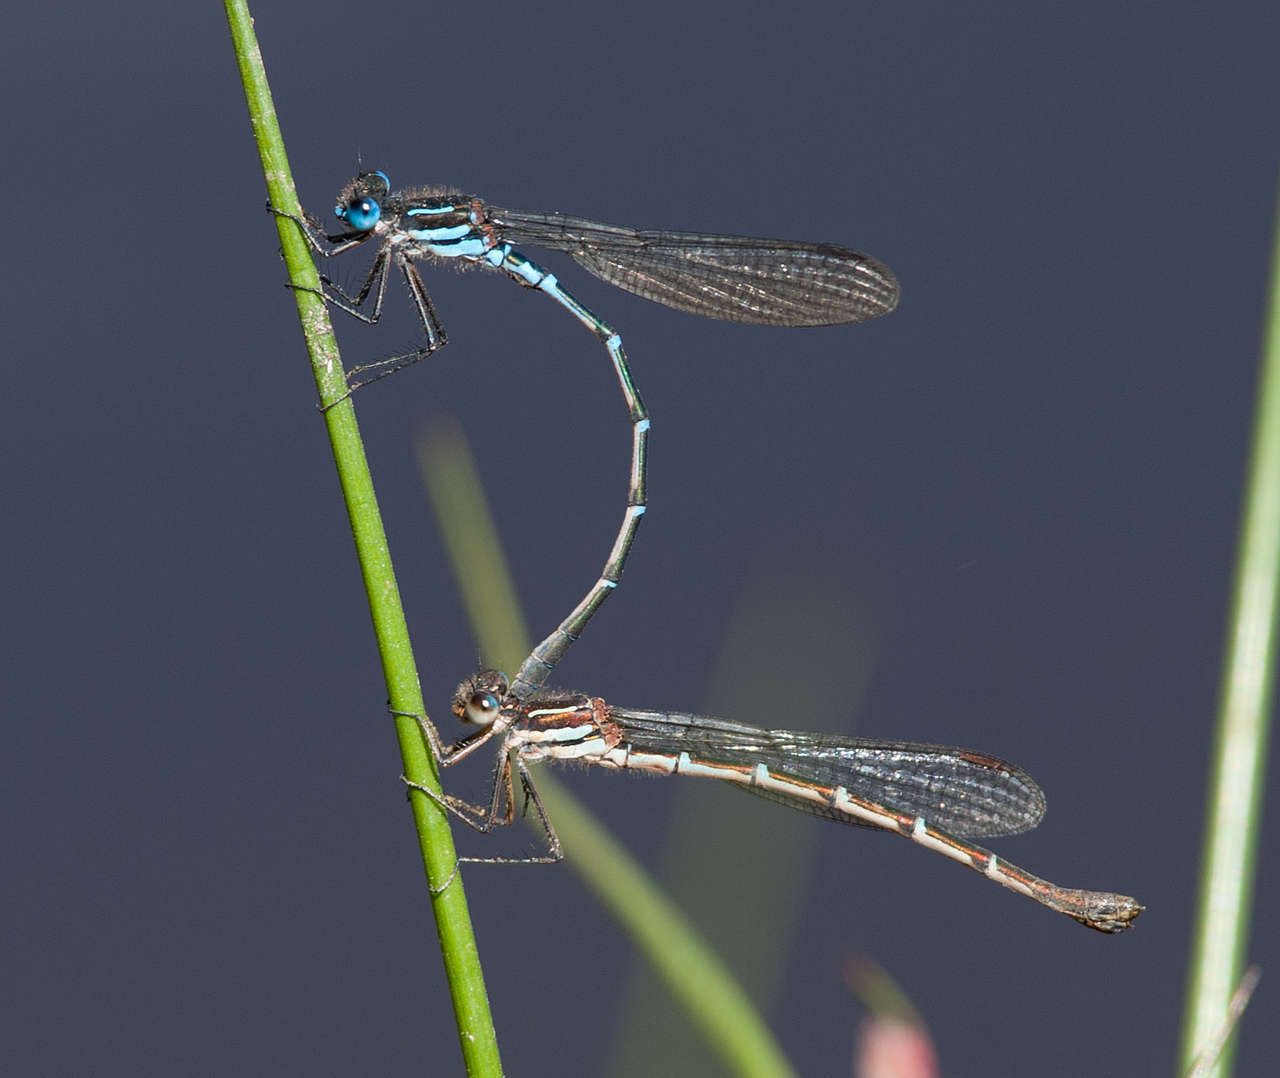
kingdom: Animalia
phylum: Arthropoda
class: Insecta
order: Odonata
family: Lestidae
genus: Austrolestes
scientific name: Austrolestes psyche
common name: Cup ringtail
